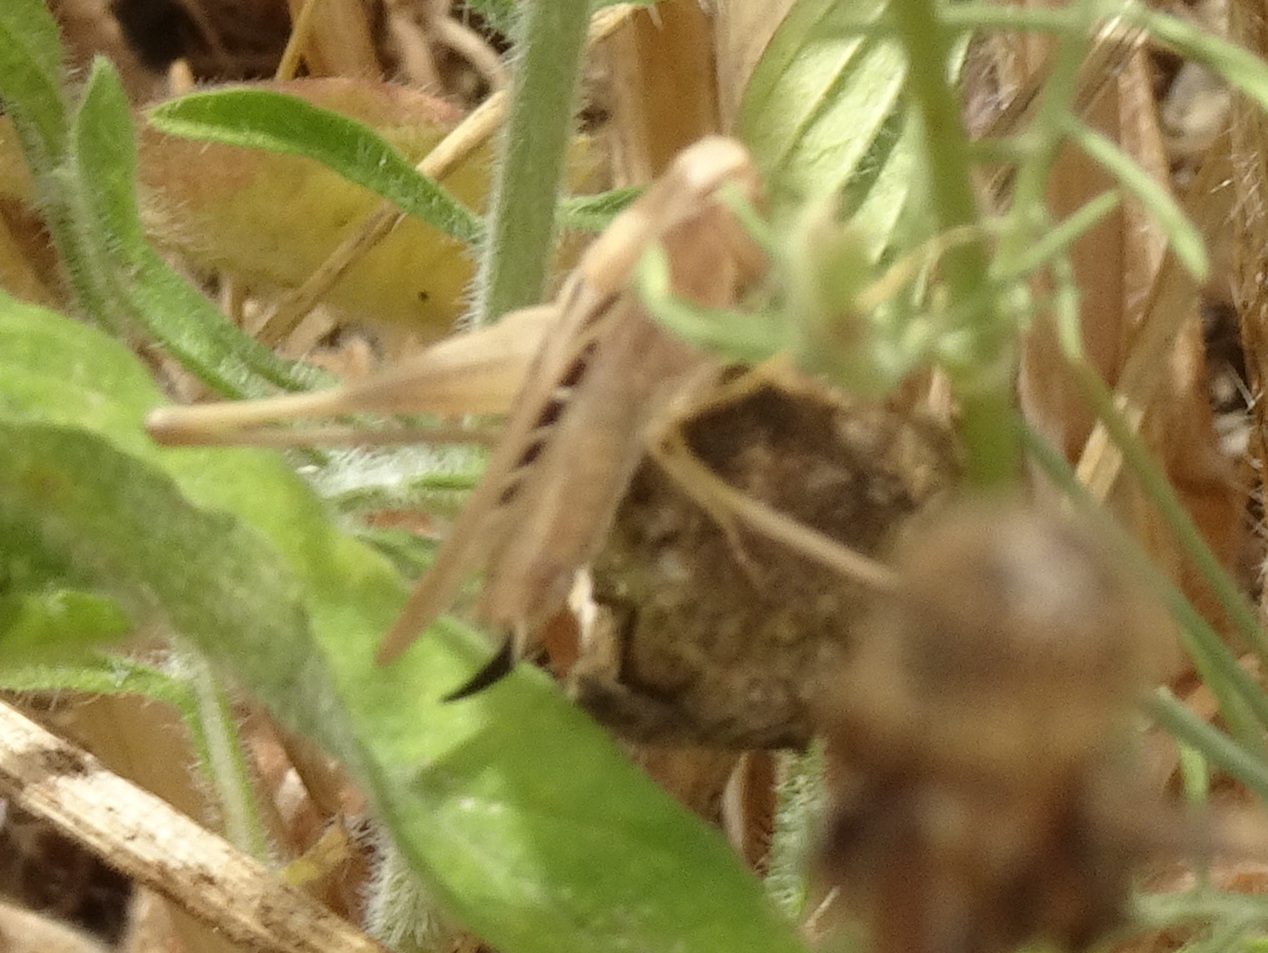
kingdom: Animalia
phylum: Arthropoda
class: Insecta
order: Orthoptera
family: Tettigoniidae
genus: Tessellana
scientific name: Tessellana tessellata
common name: Grasshopper
